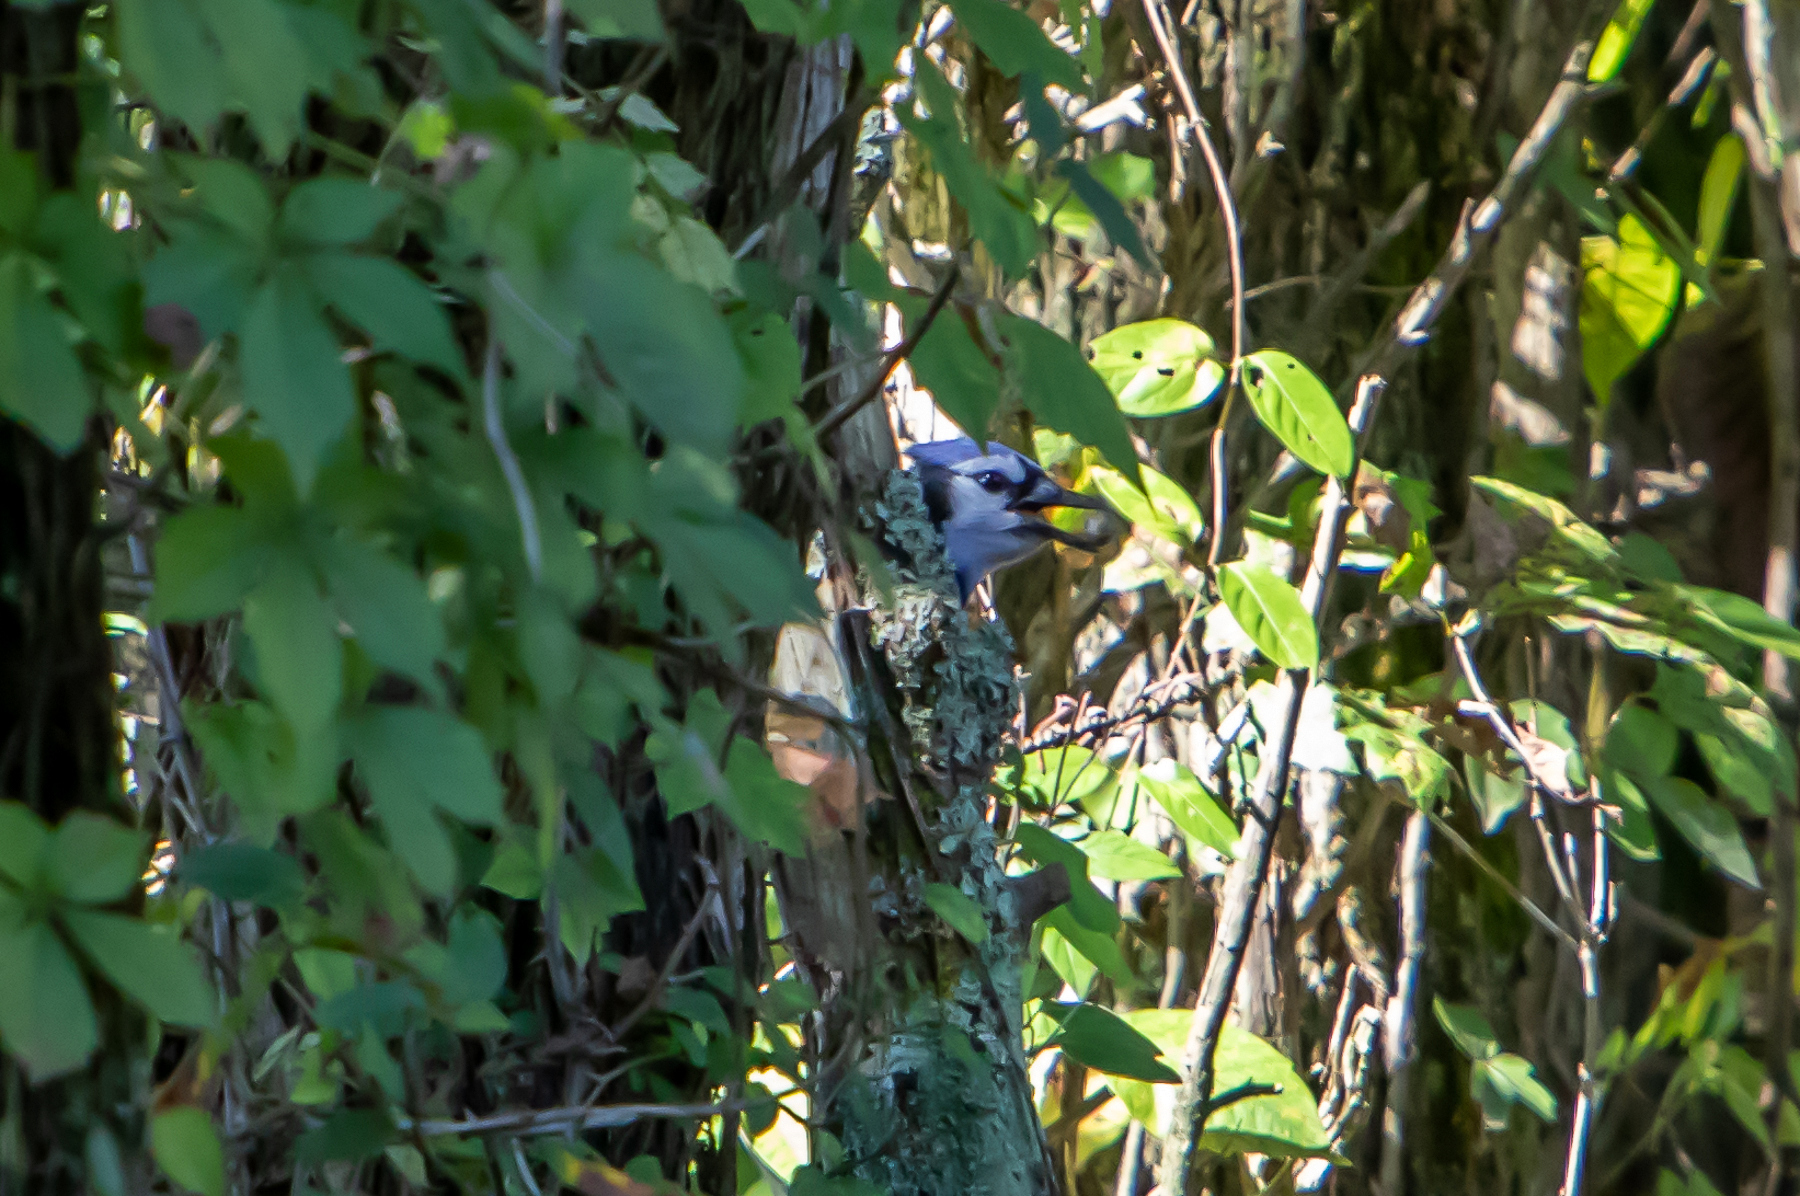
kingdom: Animalia
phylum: Chordata
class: Aves
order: Passeriformes
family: Corvidae
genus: Cyanocitta
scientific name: Cyanocitta cristata
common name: Blue jay
